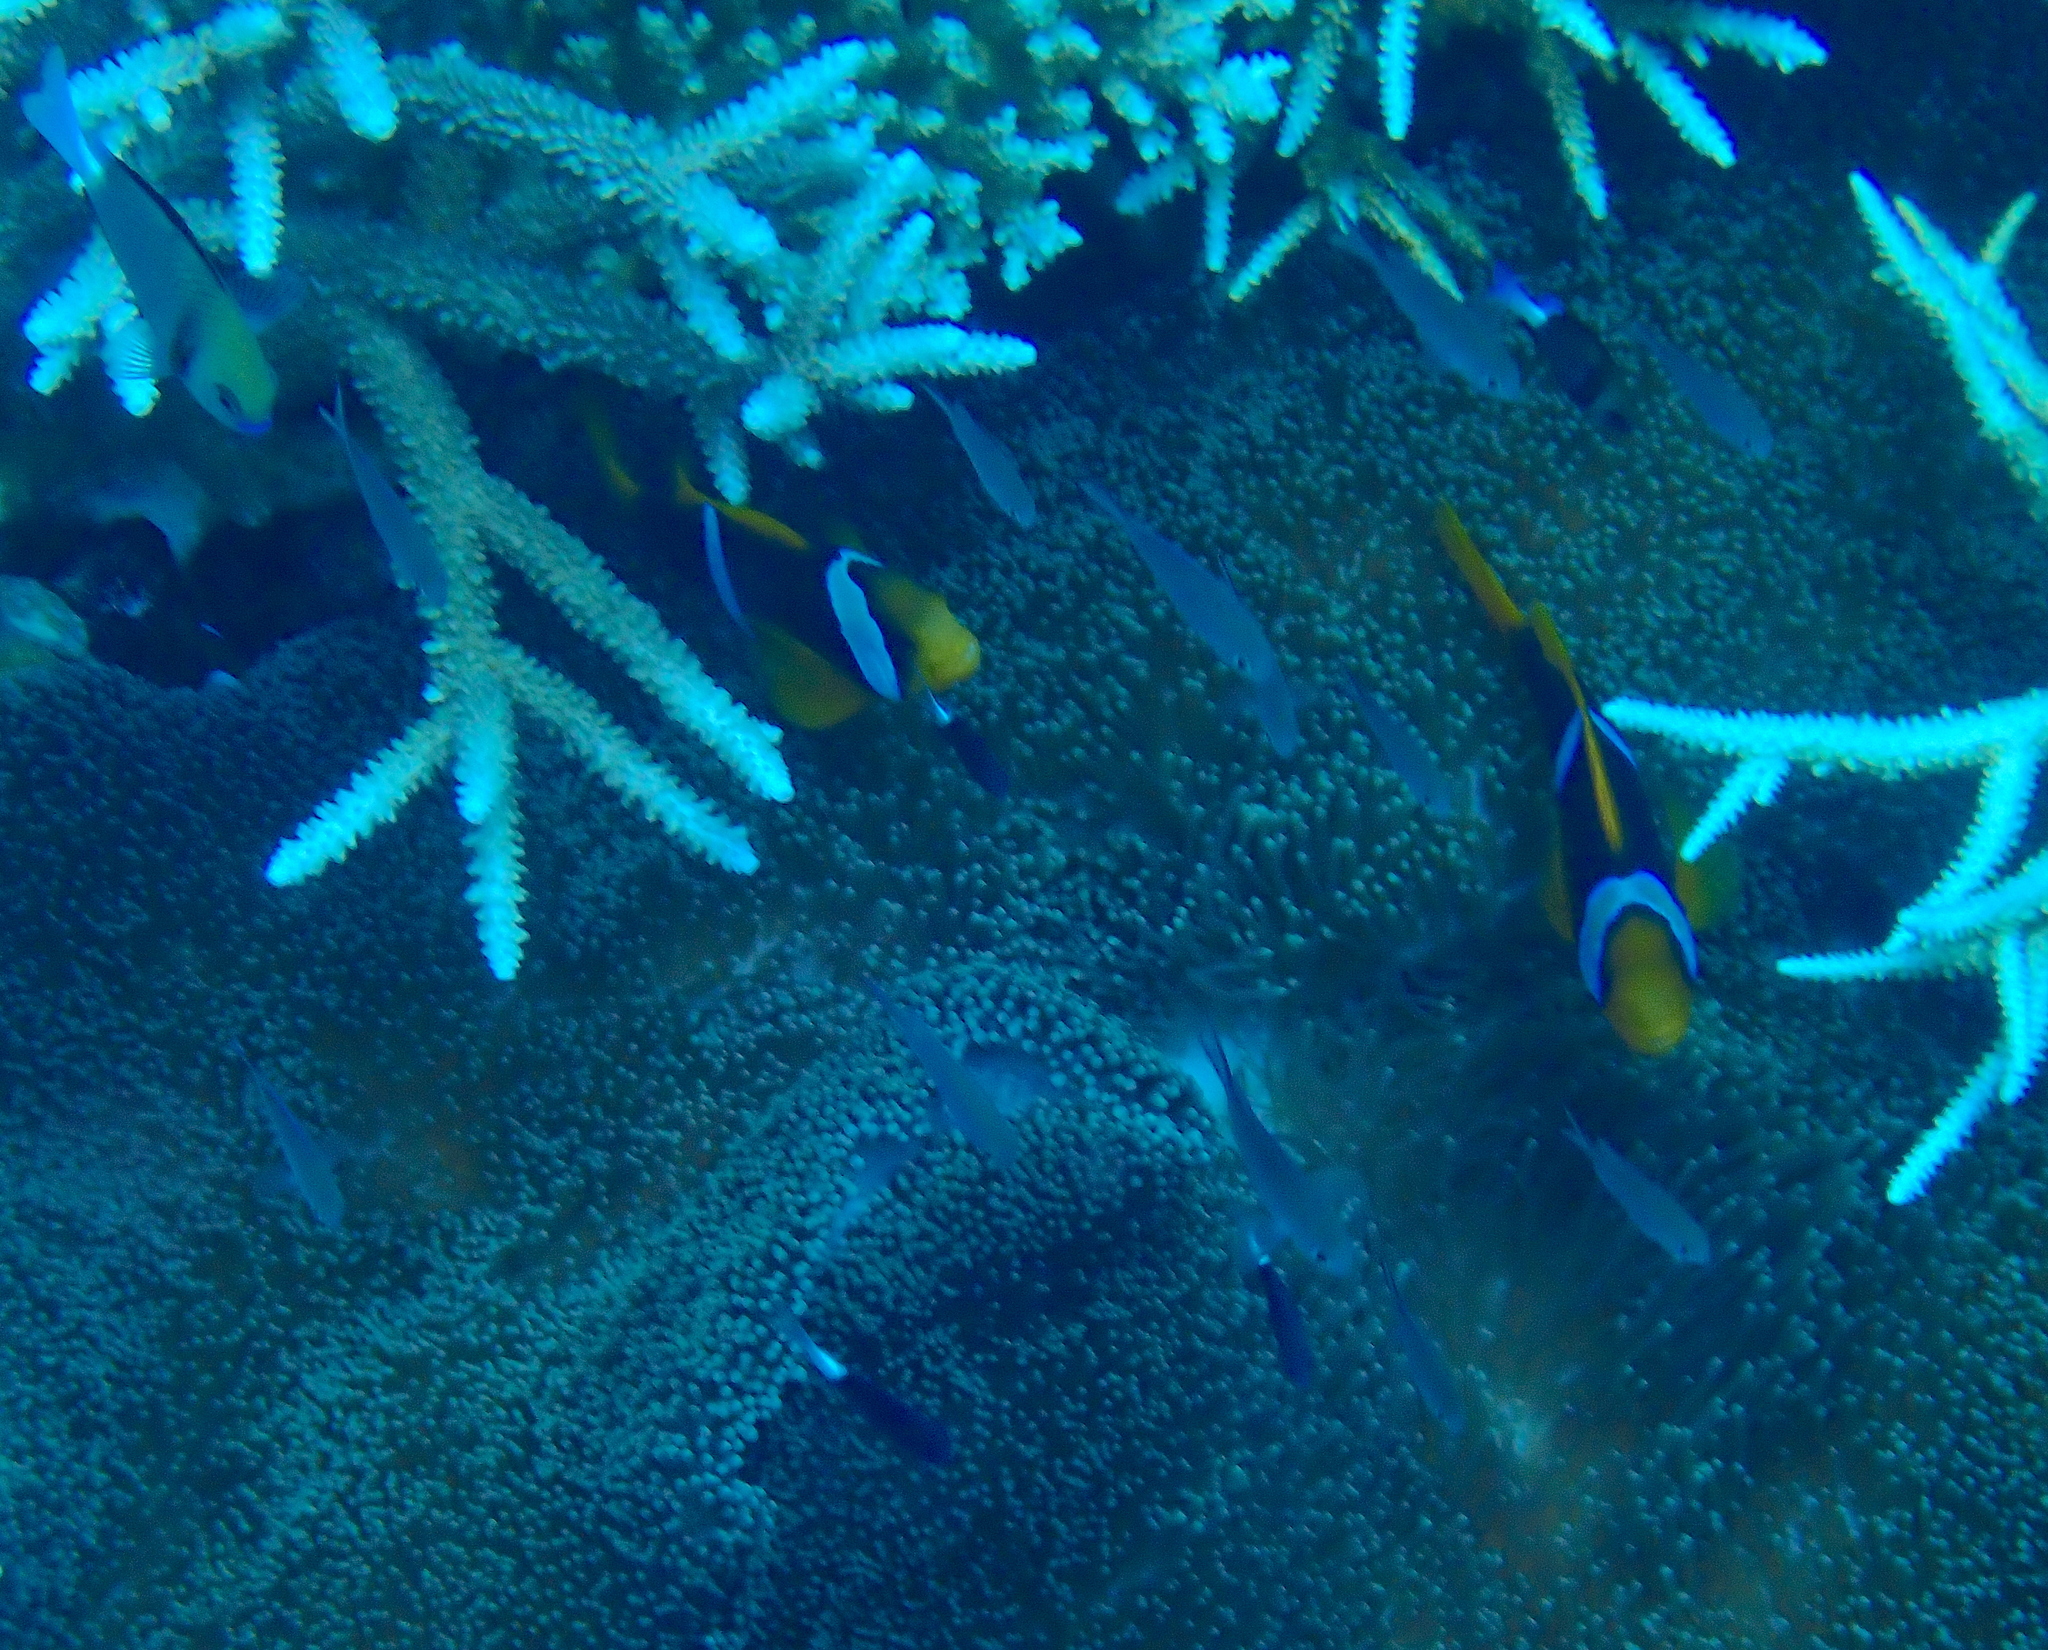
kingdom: Animalia
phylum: Chordata
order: Perciformes
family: Pomacentridae
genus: Amphiprion
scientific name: Amphiprion chrysopterus
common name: Orange-fin anemonefish
